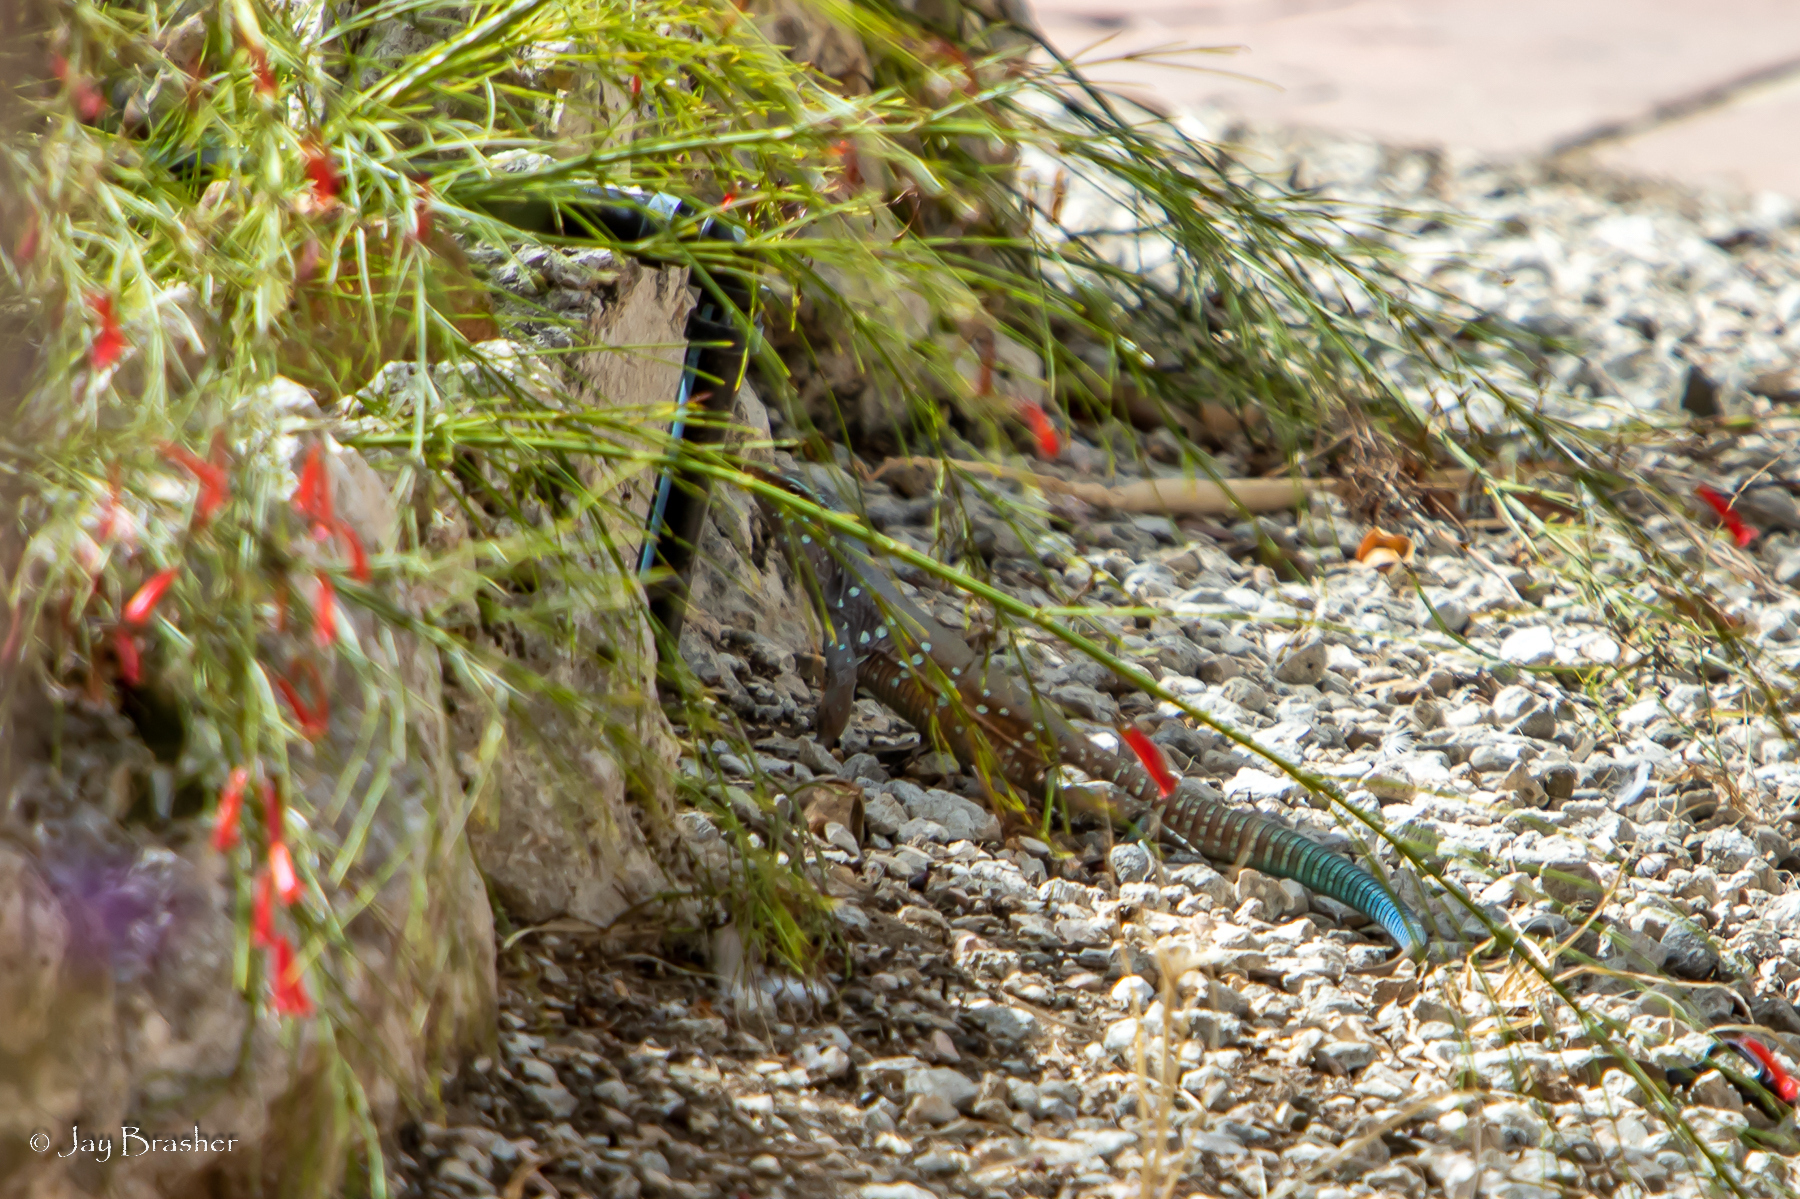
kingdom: Animalia
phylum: Chordata
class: Squamata
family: Teiidae
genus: Cnemidophorus
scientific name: Cnemidophorus ruthveni
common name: Bonaire whiptail
